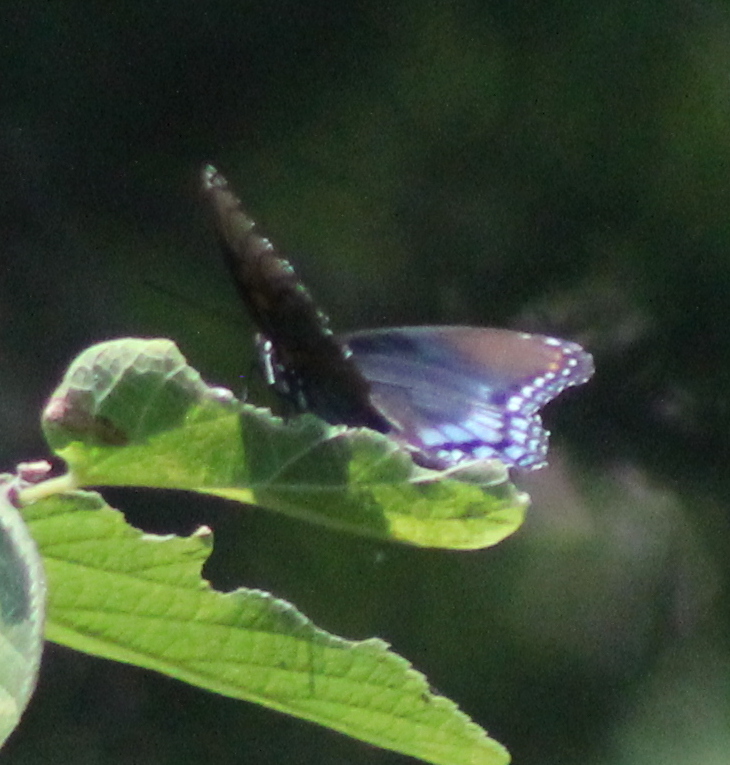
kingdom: Animalia
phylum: Arthropoda
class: Insecta
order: Lepidoptera
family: Nymphalidae
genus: Limenitis
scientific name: Limenitis arthemis
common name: Red-spotted admiral
